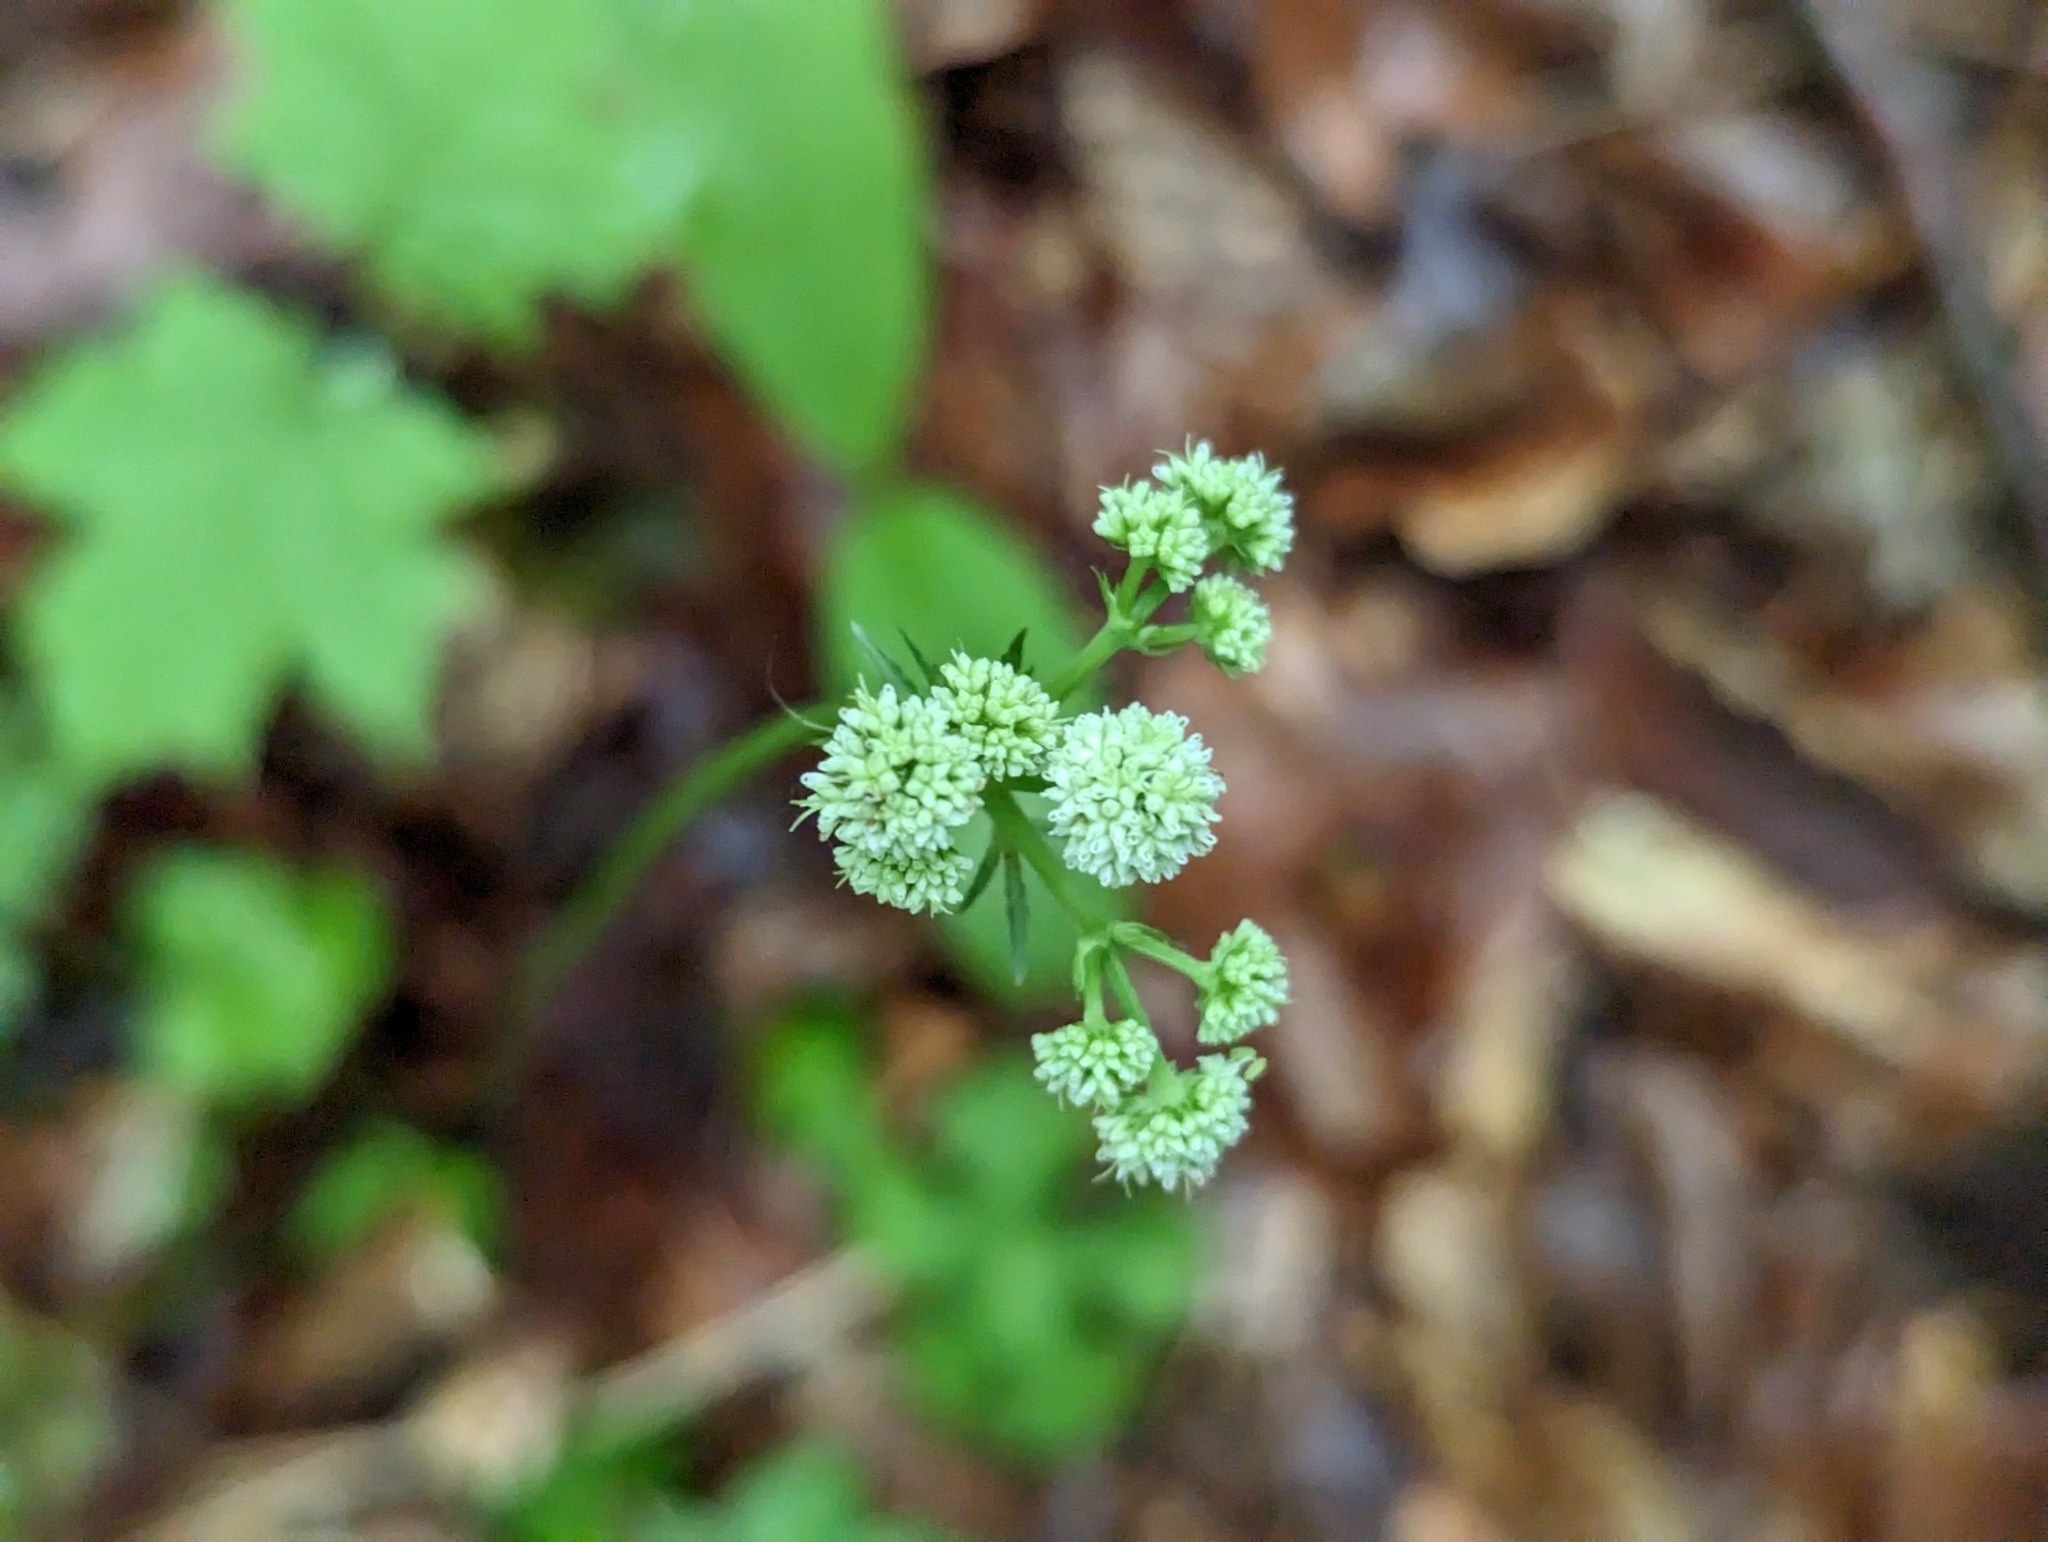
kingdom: Plantae
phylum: Tracheophyta
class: Magnoliopsida
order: Apiales
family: Apiaceae
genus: Sanicula
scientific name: Sanicula europaea
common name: Sanicle
